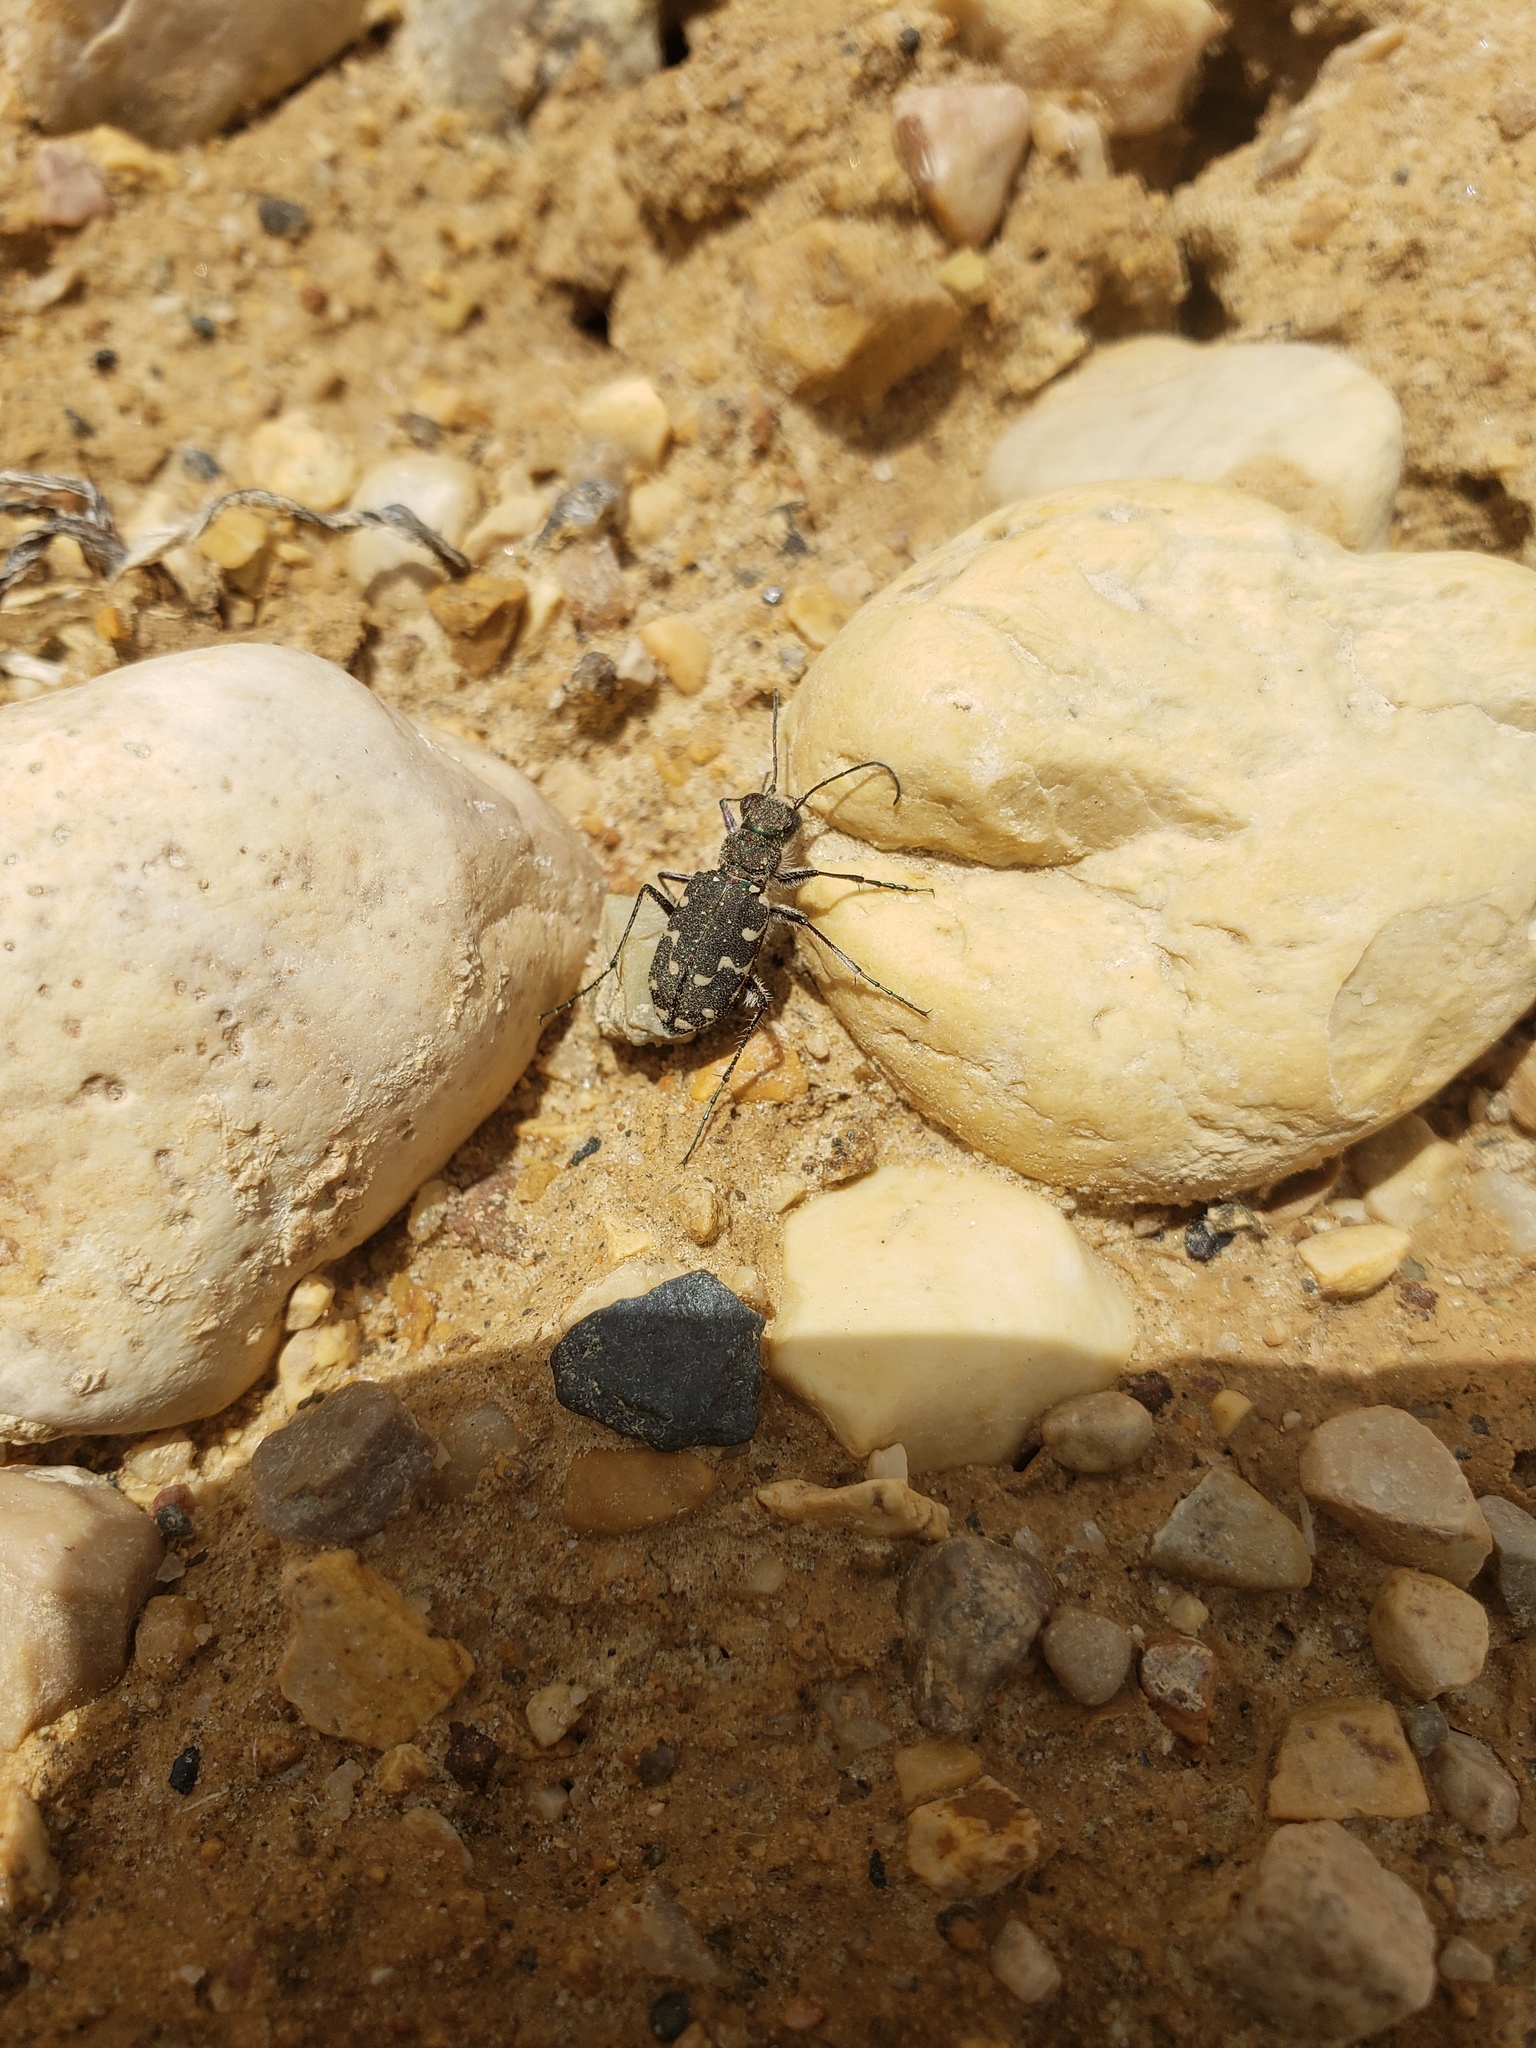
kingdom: Animalia
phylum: Arthropoda
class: Insecta
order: Coleoptera
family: Carabidae
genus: Cicindela
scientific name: Cicindela duodecimguttata
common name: Twelve-spotted tiger beetle
